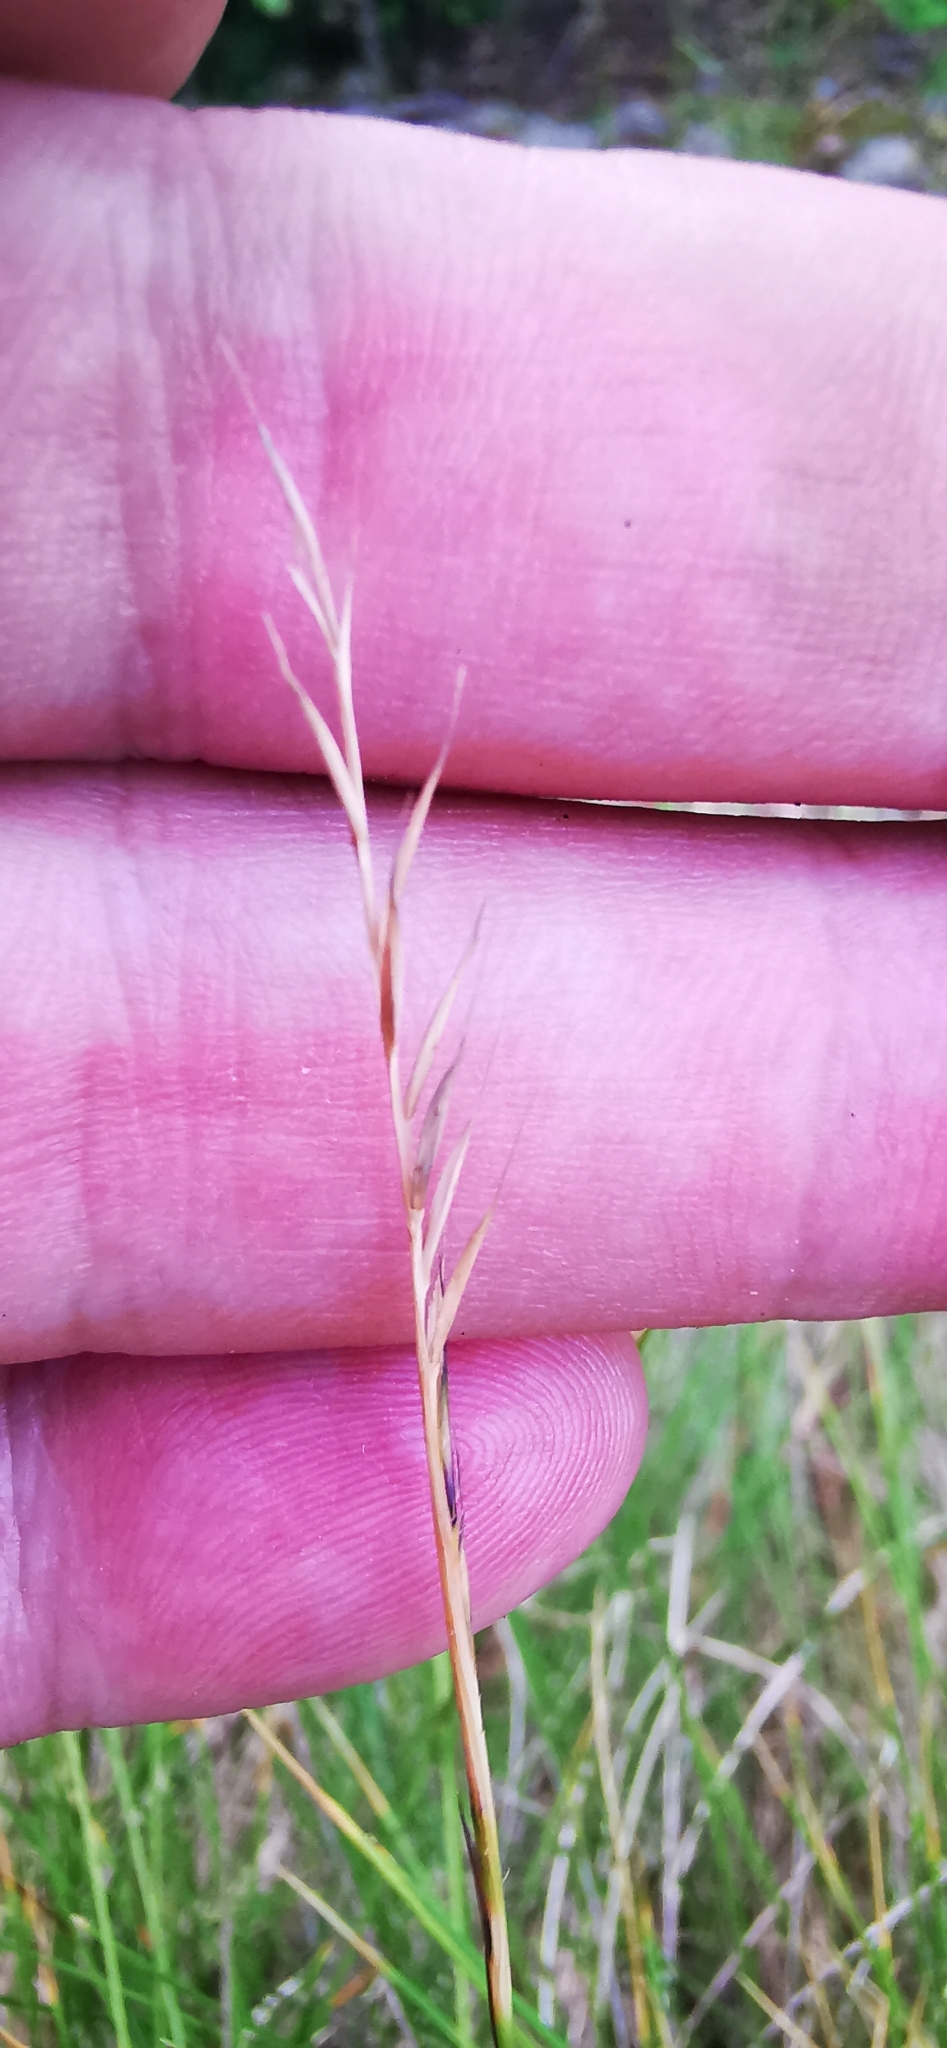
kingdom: Plantae
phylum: Tracheophyta
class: Liliopsida
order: Poales
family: Poaceae
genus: Nardus
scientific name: Nardus stricta
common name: Mat-grass
